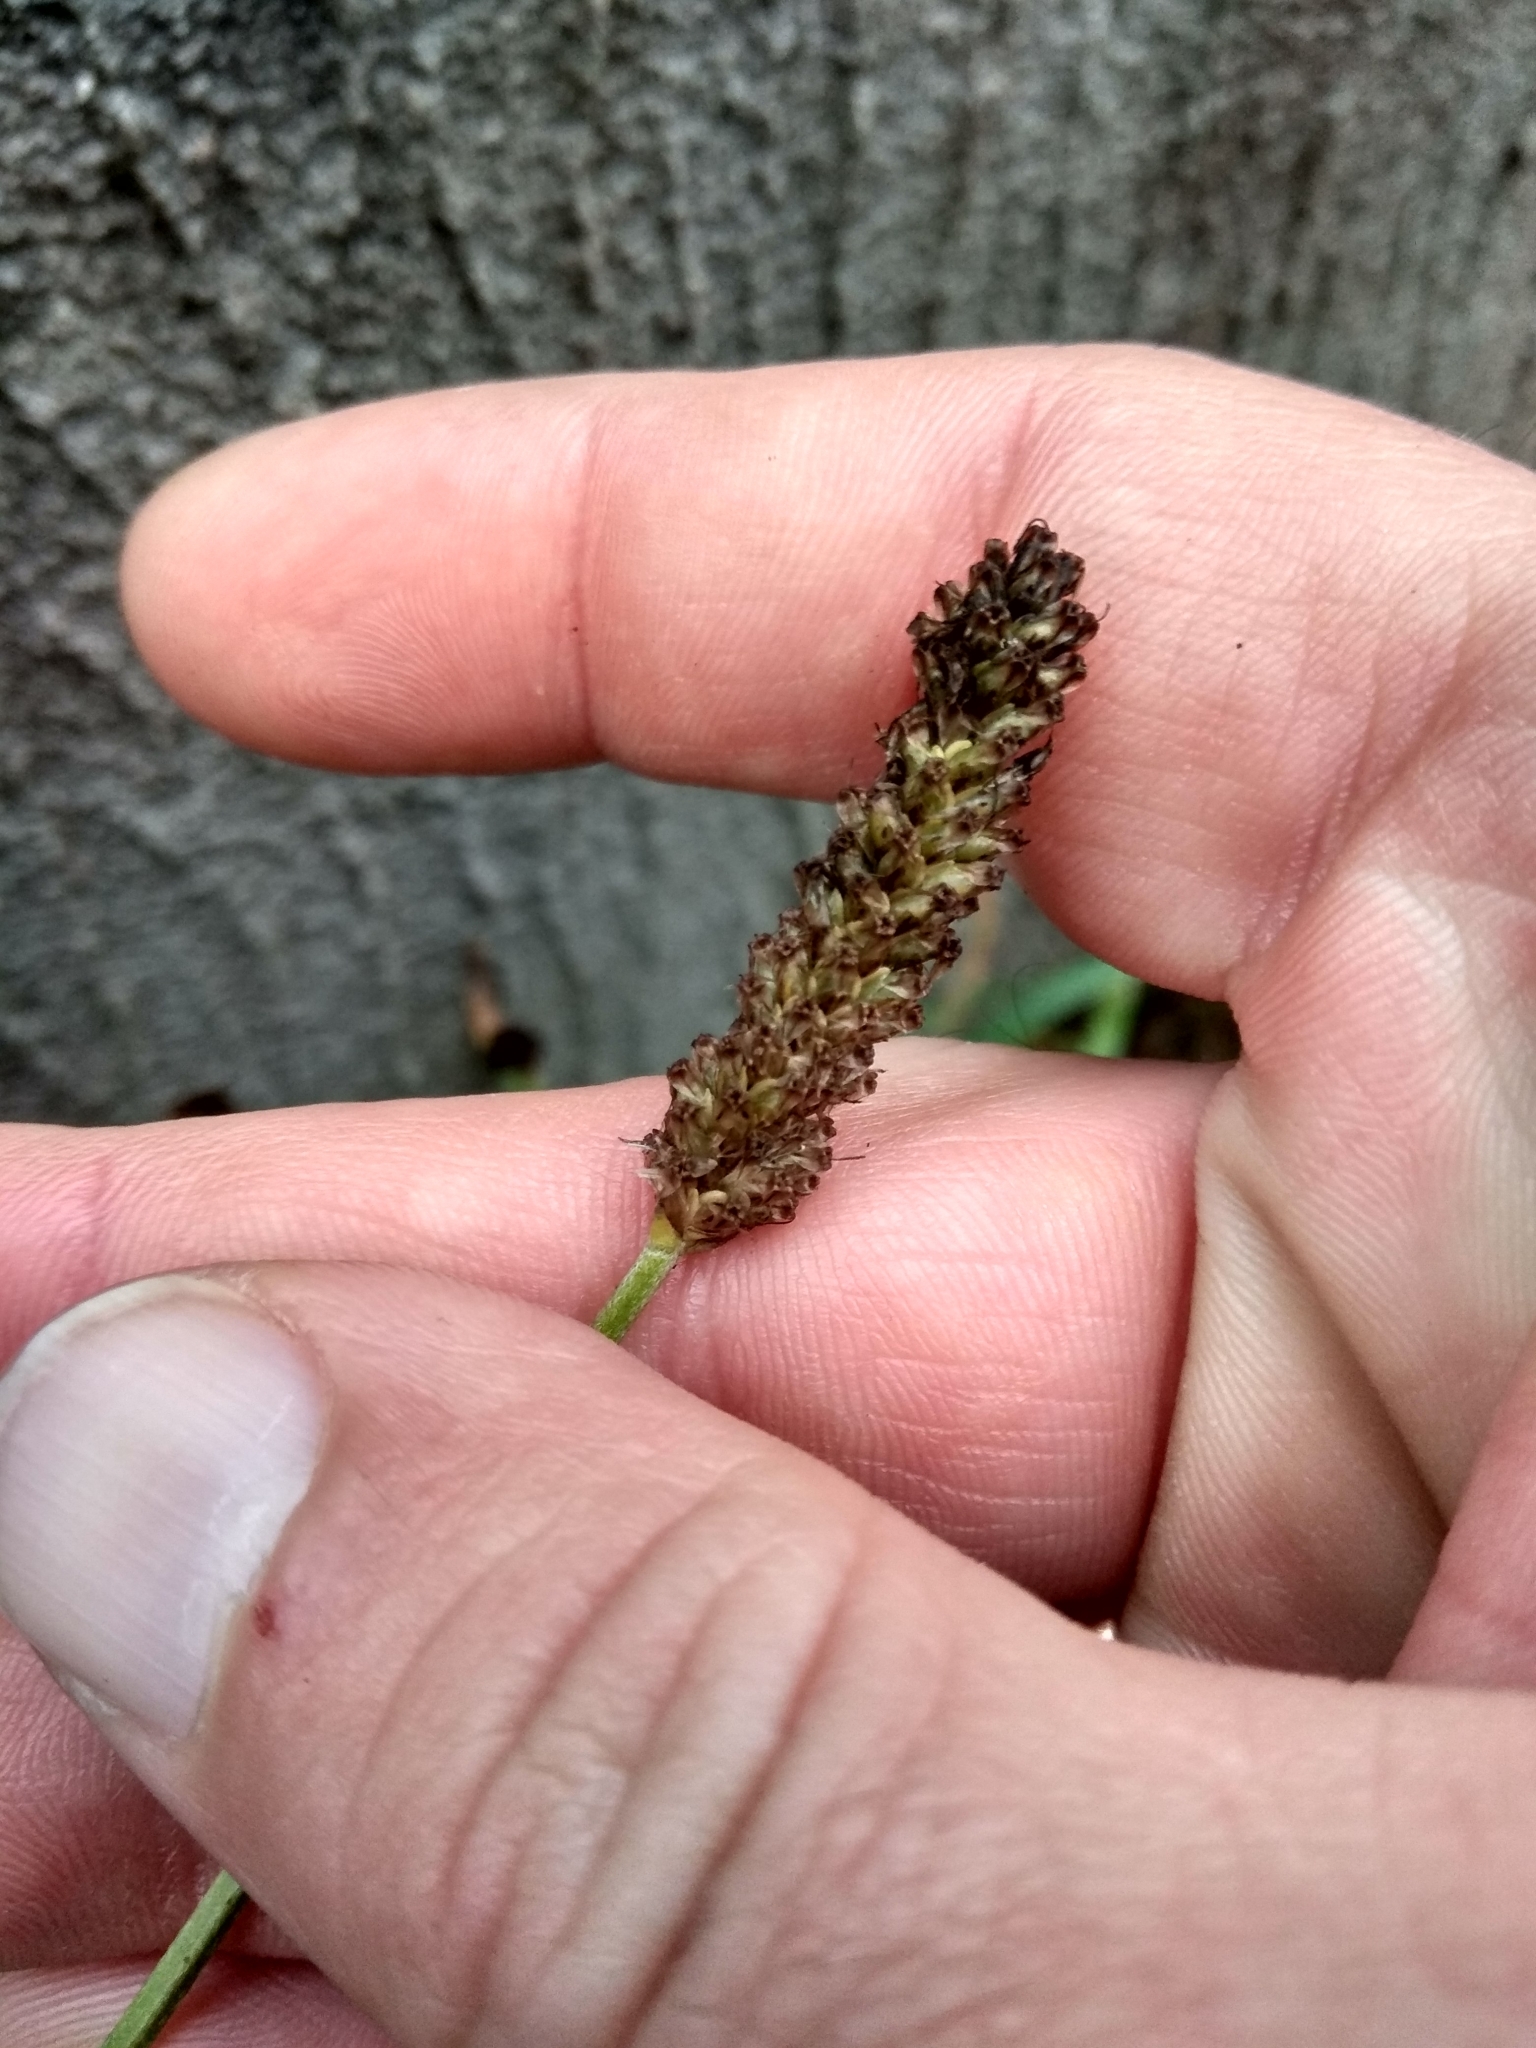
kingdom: Plantae
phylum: Tracheophyta
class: Magnoliopsida
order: Lamiales
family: Plantaginaceae
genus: Plantago
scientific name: Plantago lanceolata
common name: Ribwort plantain
